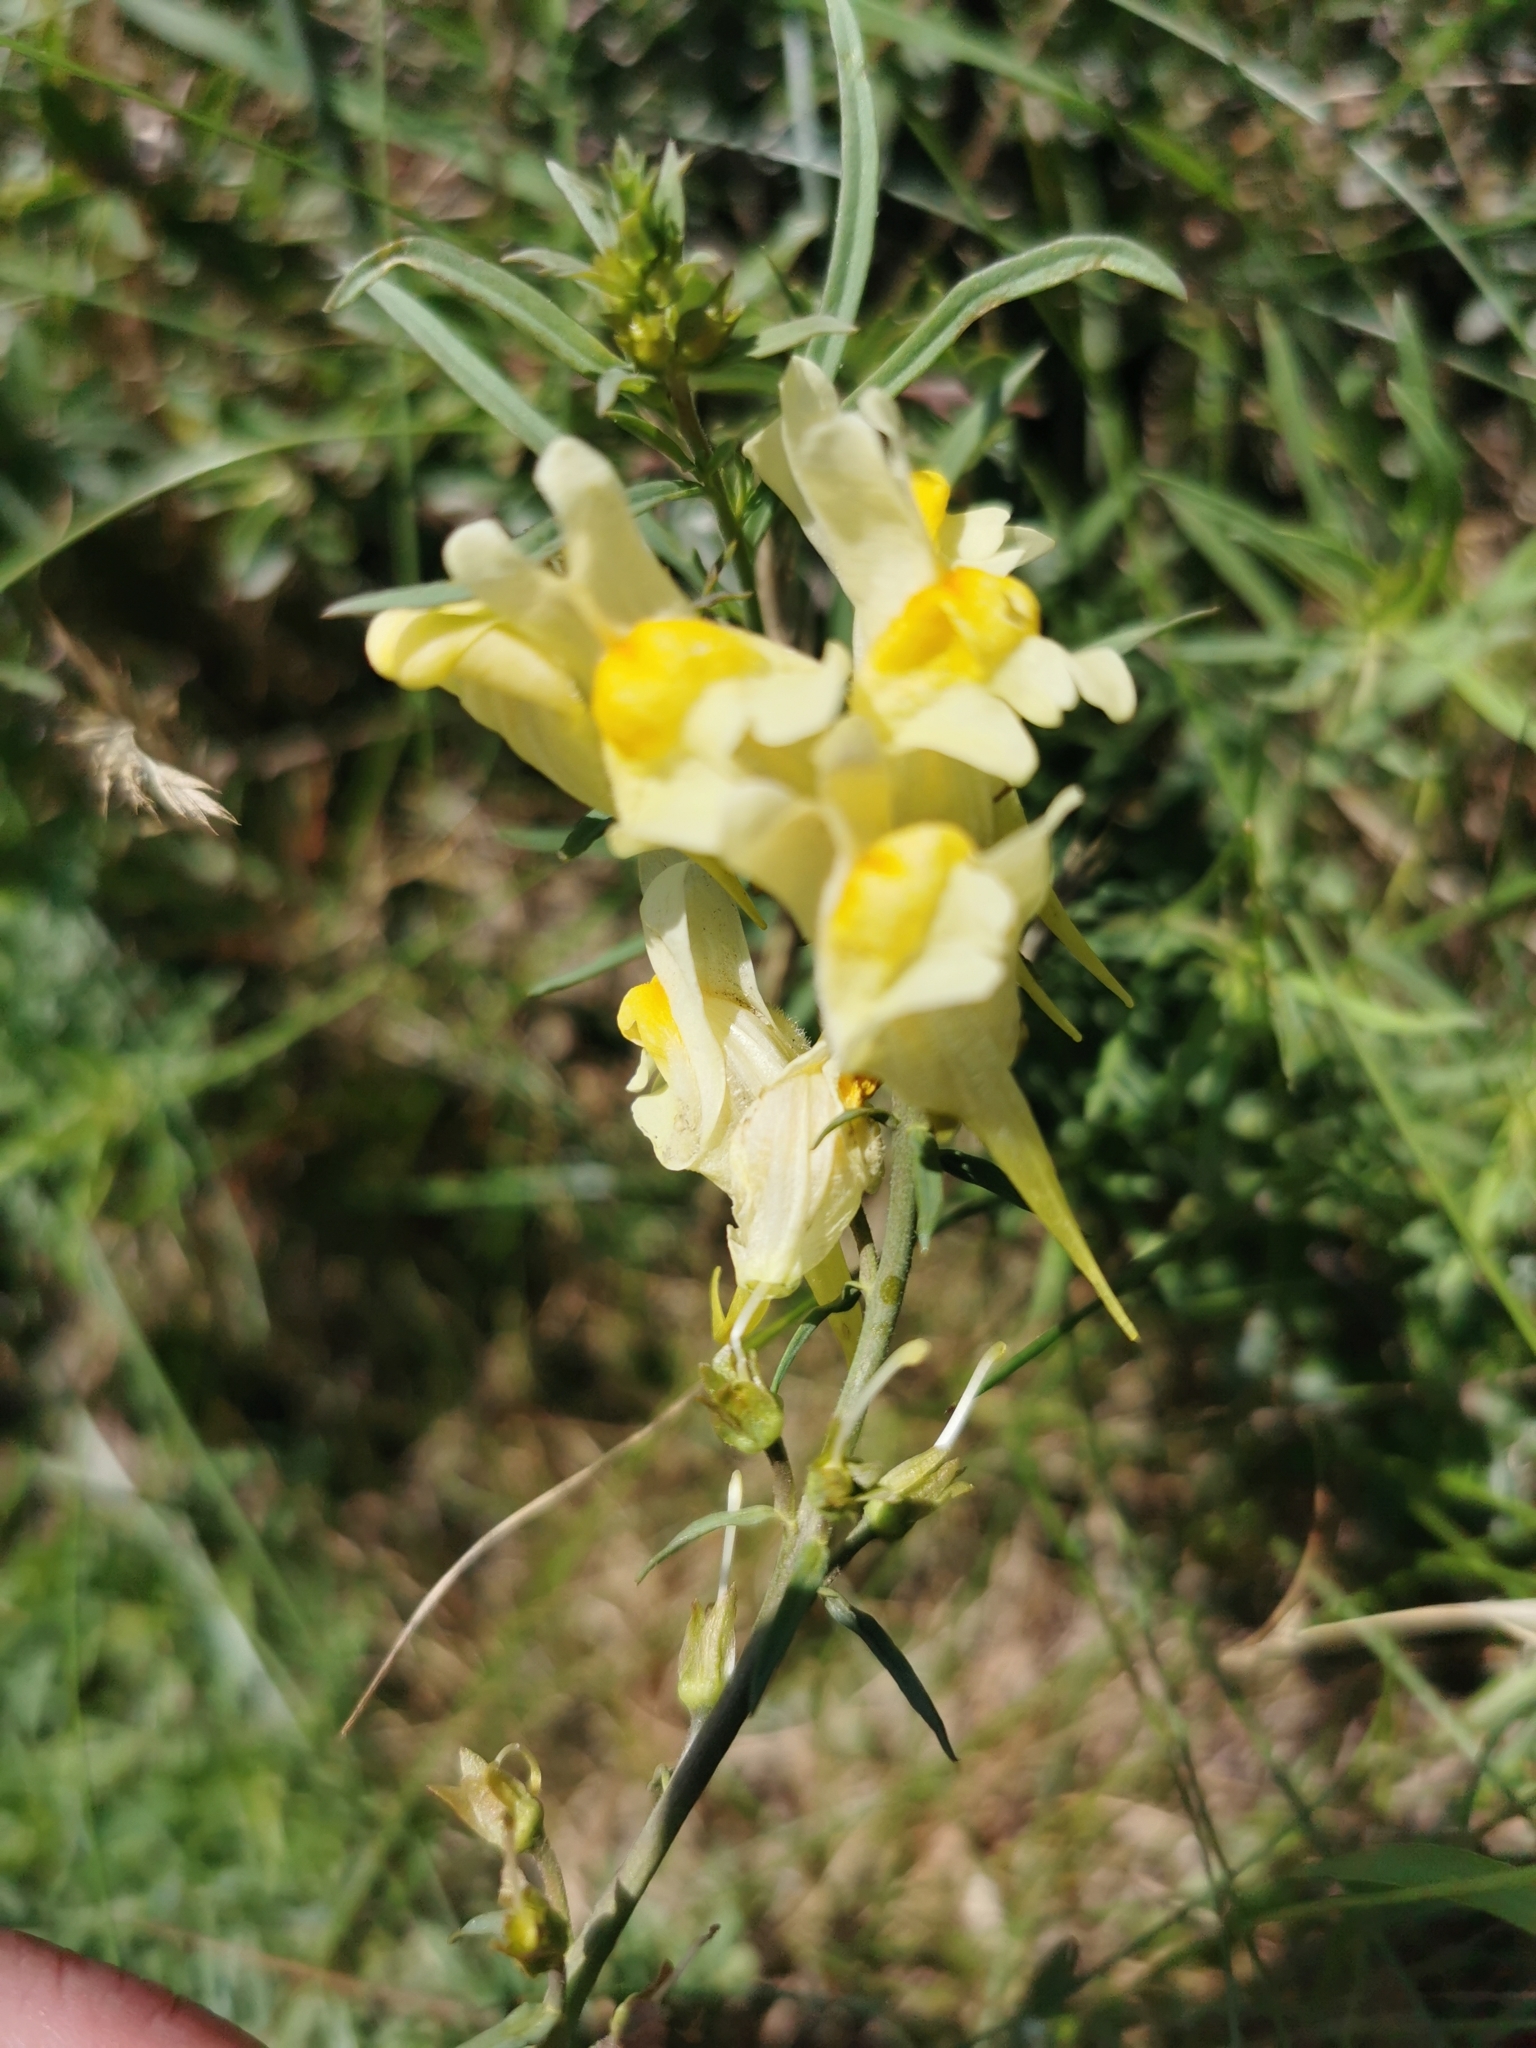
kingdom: Plantae
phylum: Tracheophyta
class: Magnoliopsida
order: Lamiales
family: Plantaginaceae
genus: Linaria
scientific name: Linaria vulgaris
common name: Butter and eggs
